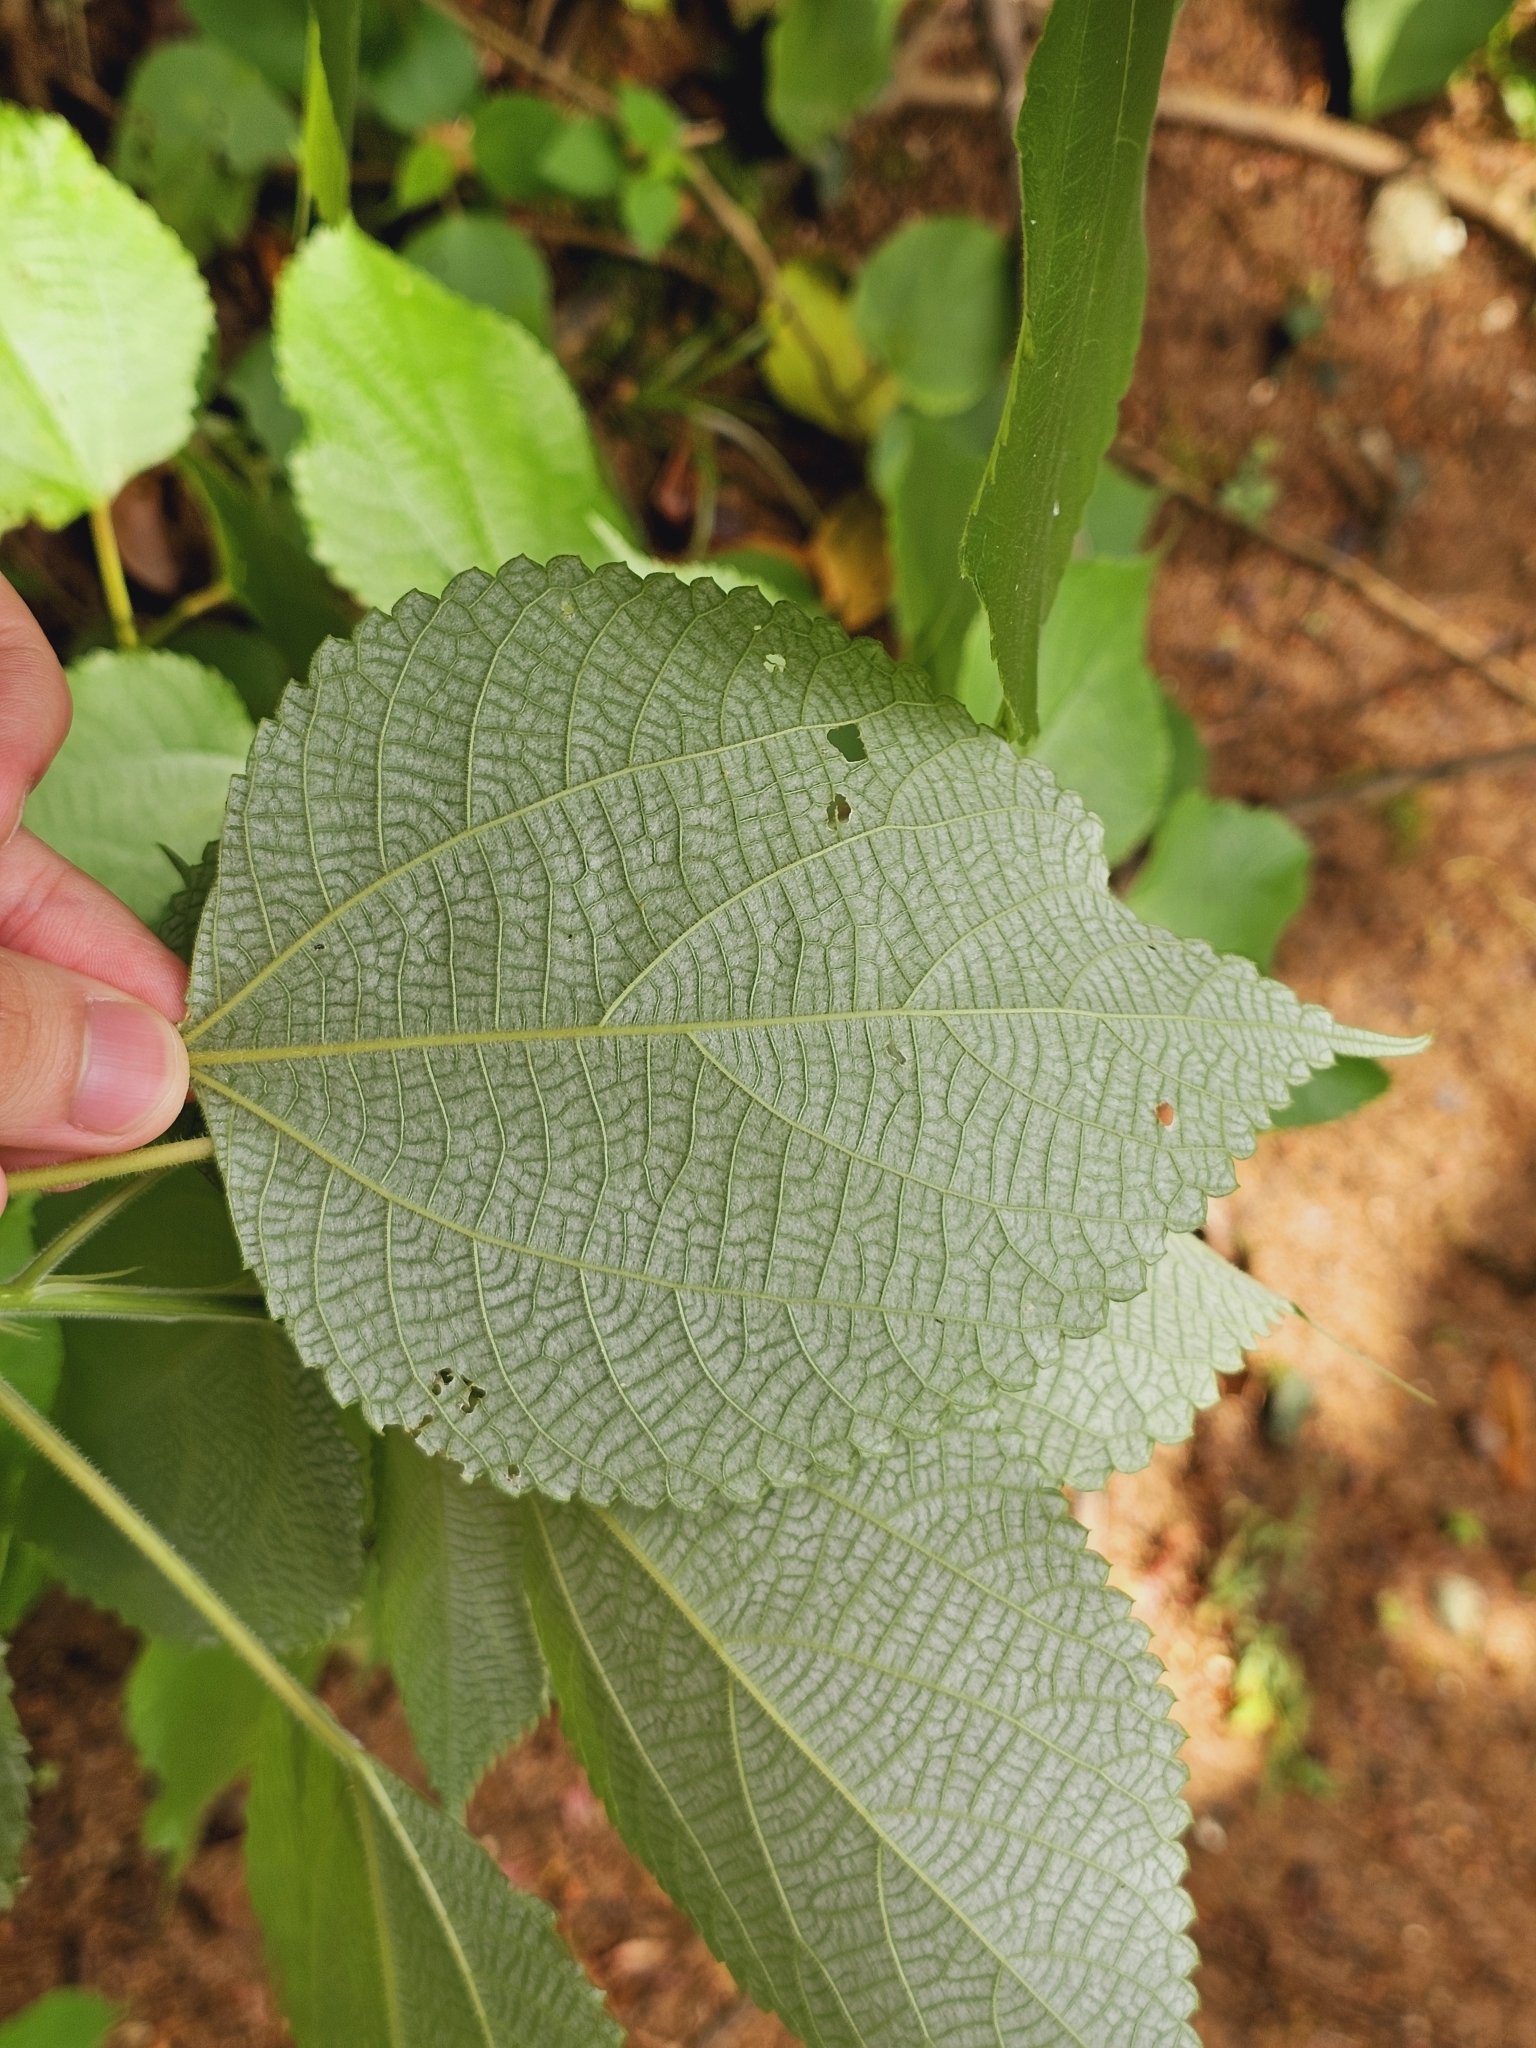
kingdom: Plantae
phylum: Tracheophyta
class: Magnoliopsida
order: Rosales
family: Urticaceae
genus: Boehmeria
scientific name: Boehmeria nivea
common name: Ramie chinese grass
